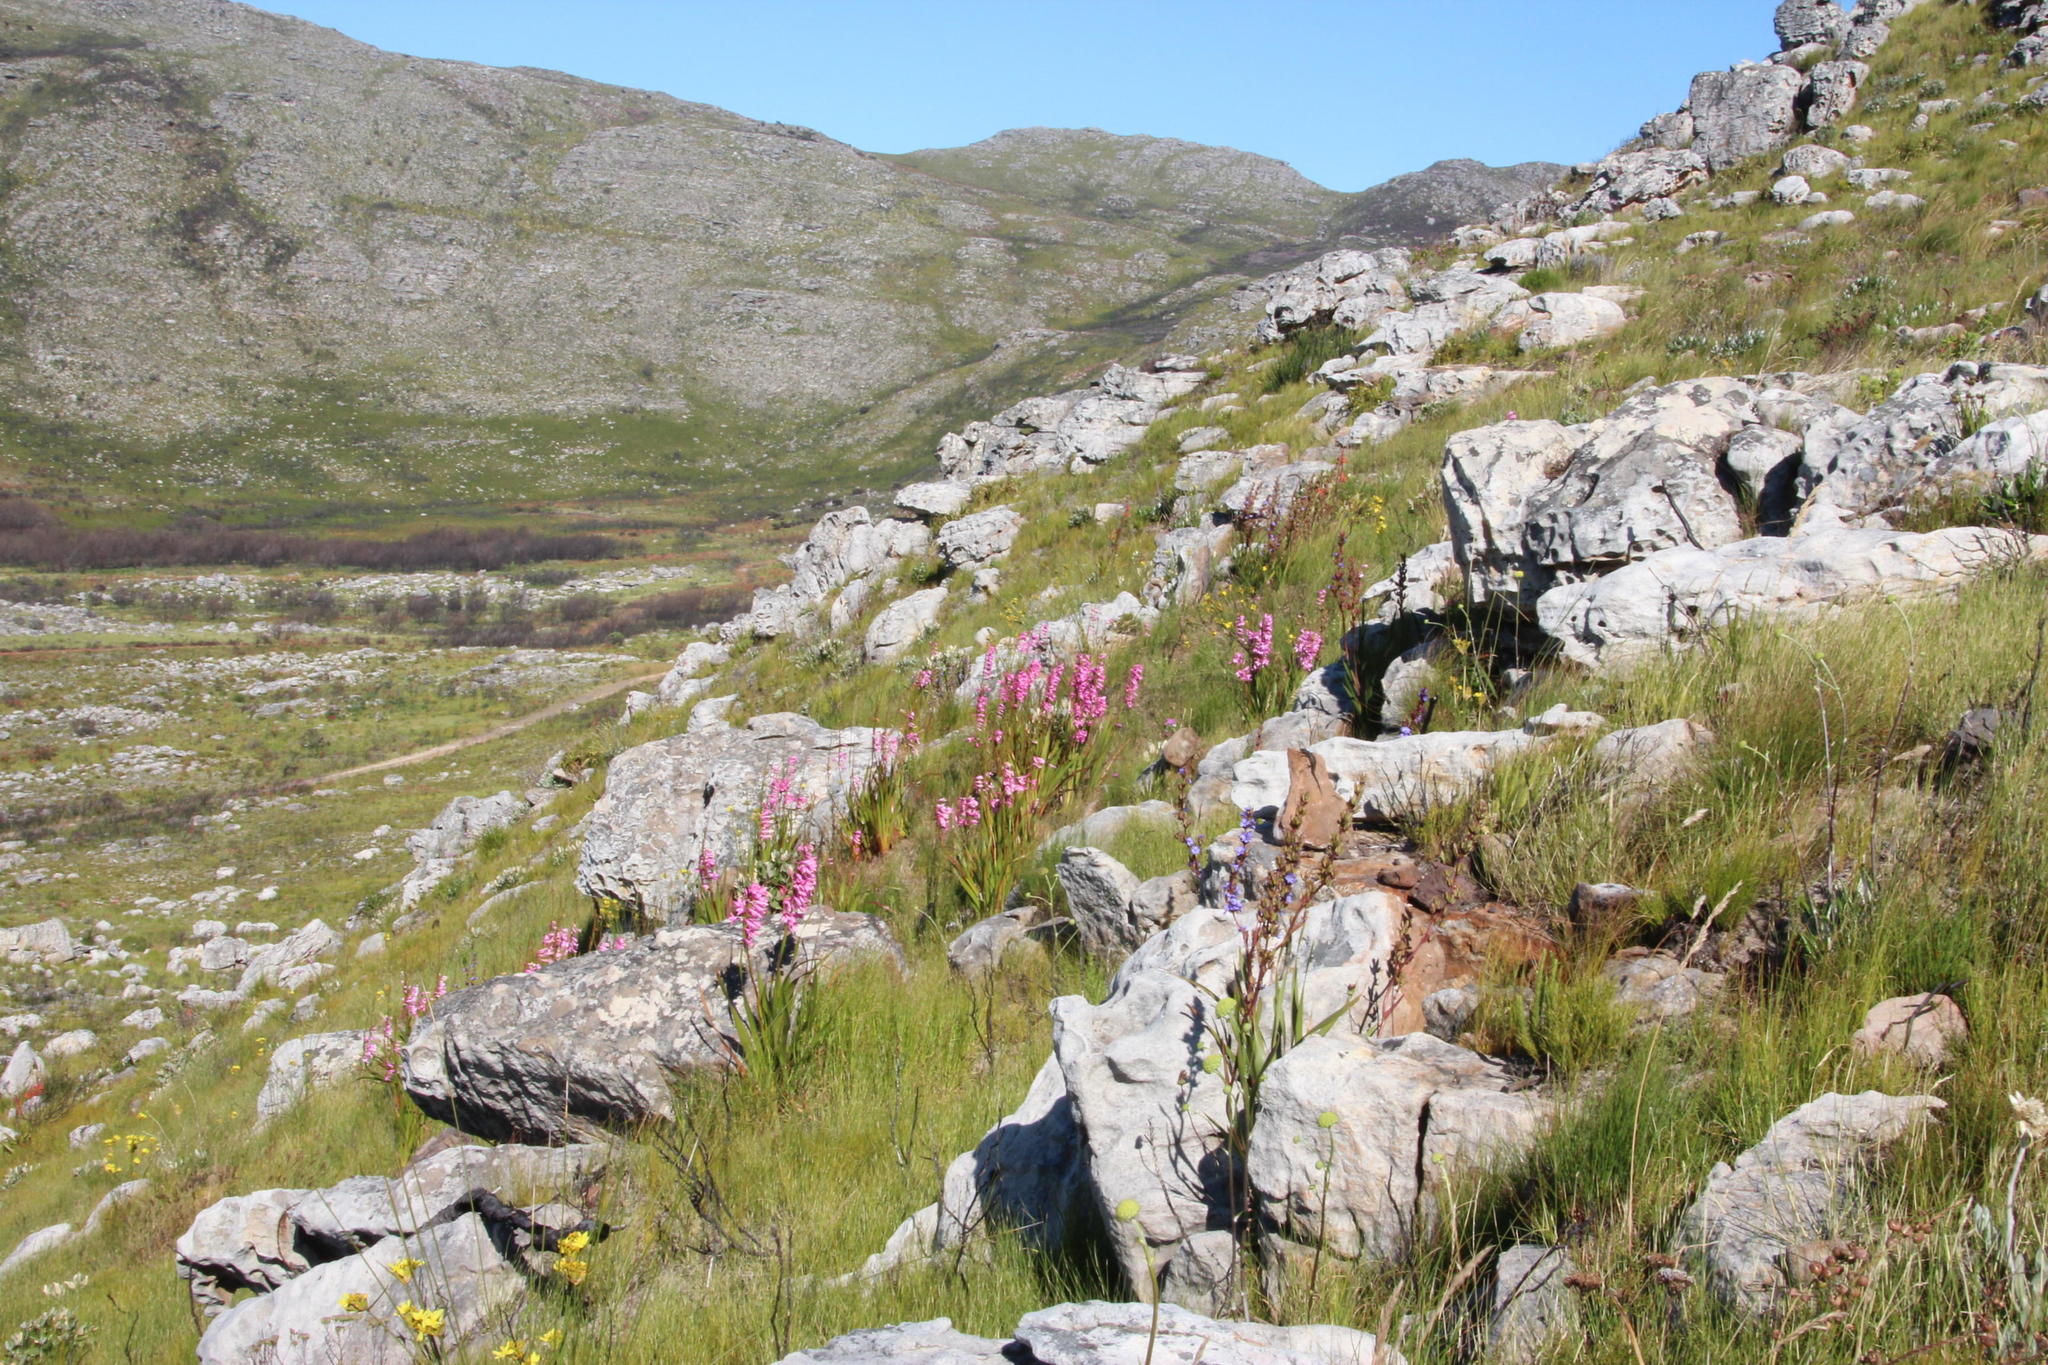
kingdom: Plantae
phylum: Tracheophyta
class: Liliopsida
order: Asparagales
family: Iridaceae
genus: Watsonia
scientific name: Watsonia borbonica
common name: Bugle-lily
